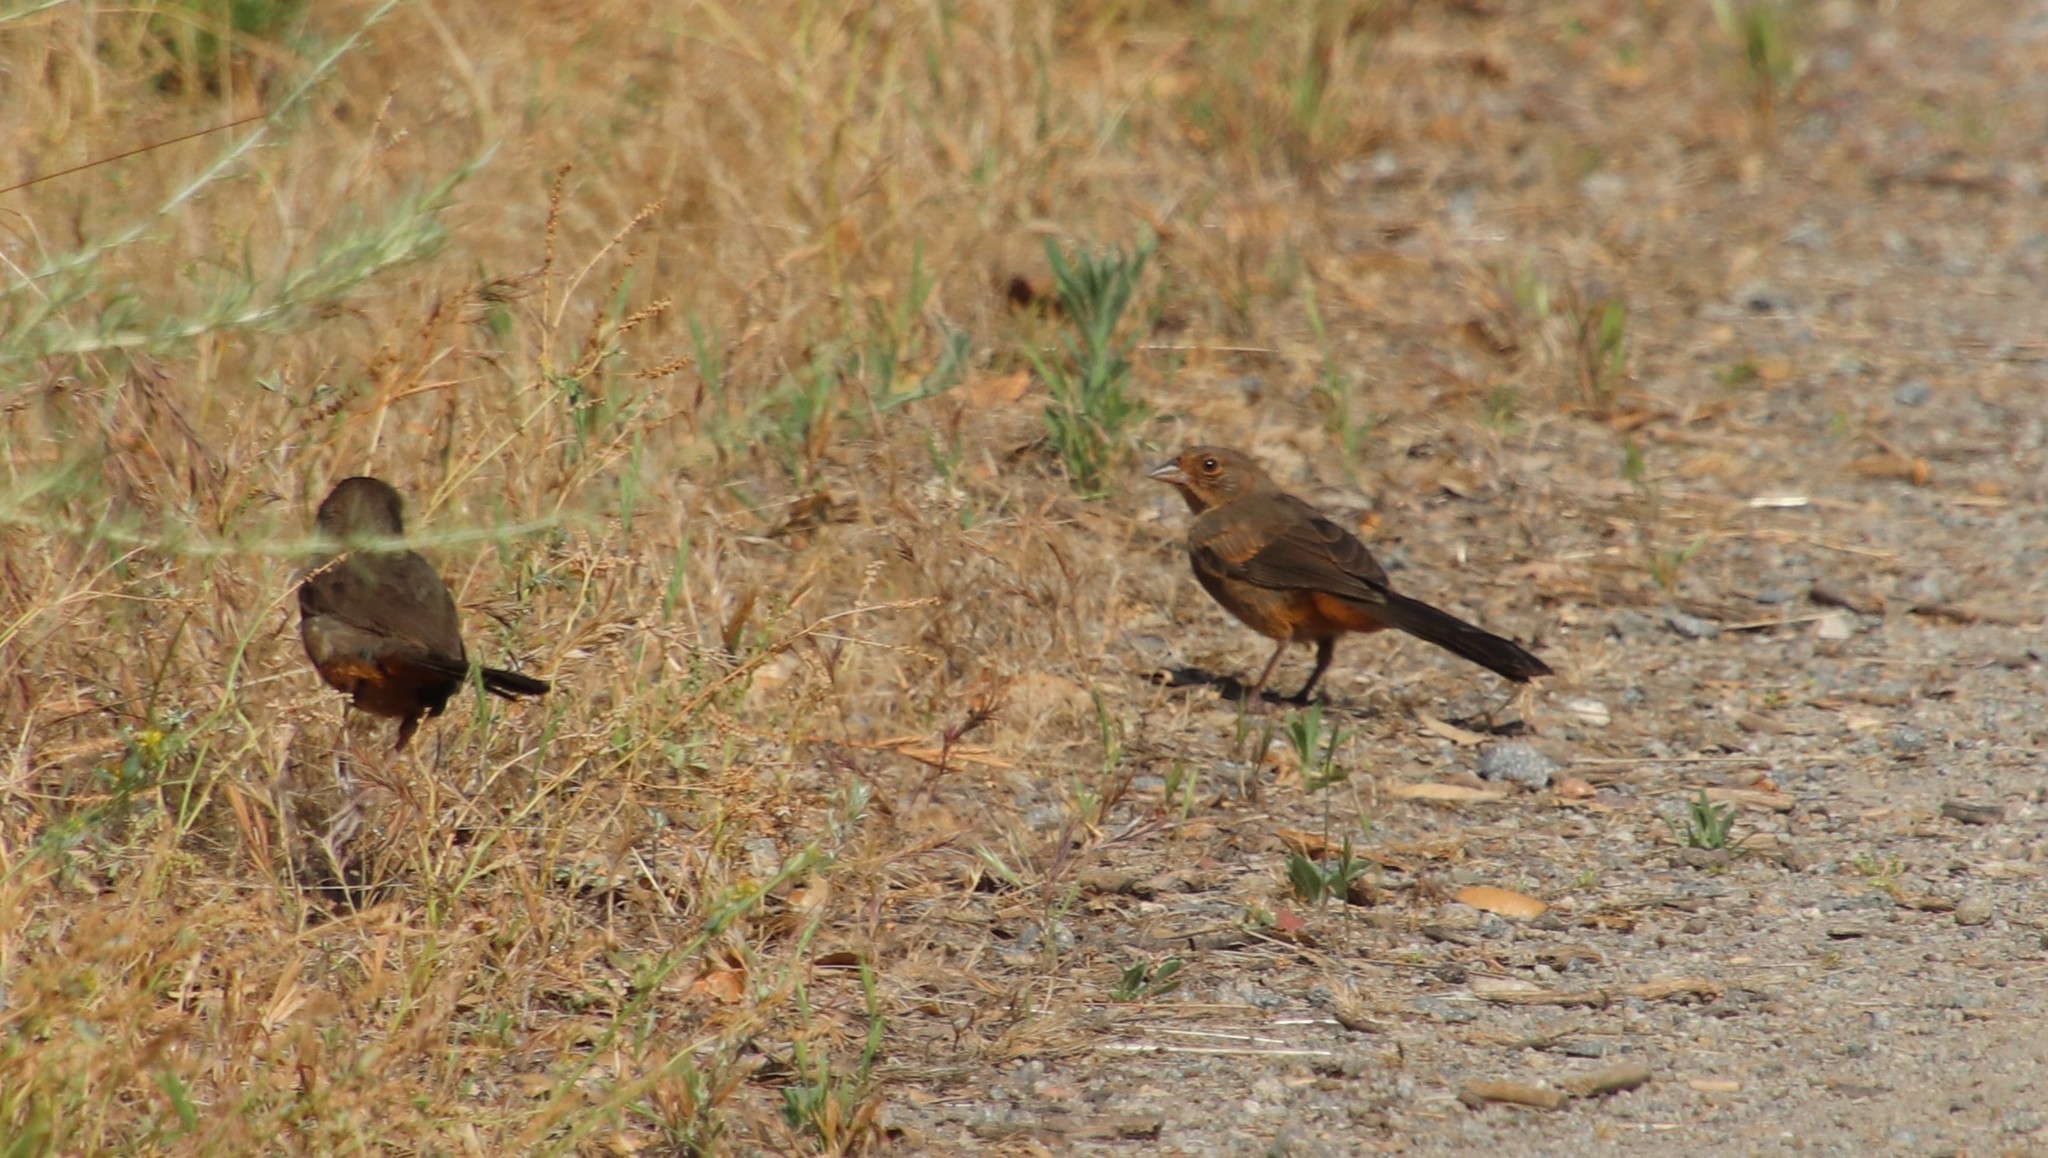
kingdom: Animalia
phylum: Chordata
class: Aves
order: Passeriformes
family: Passerellidae
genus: Melozone
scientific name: Melozone crissalis
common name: California towhee
